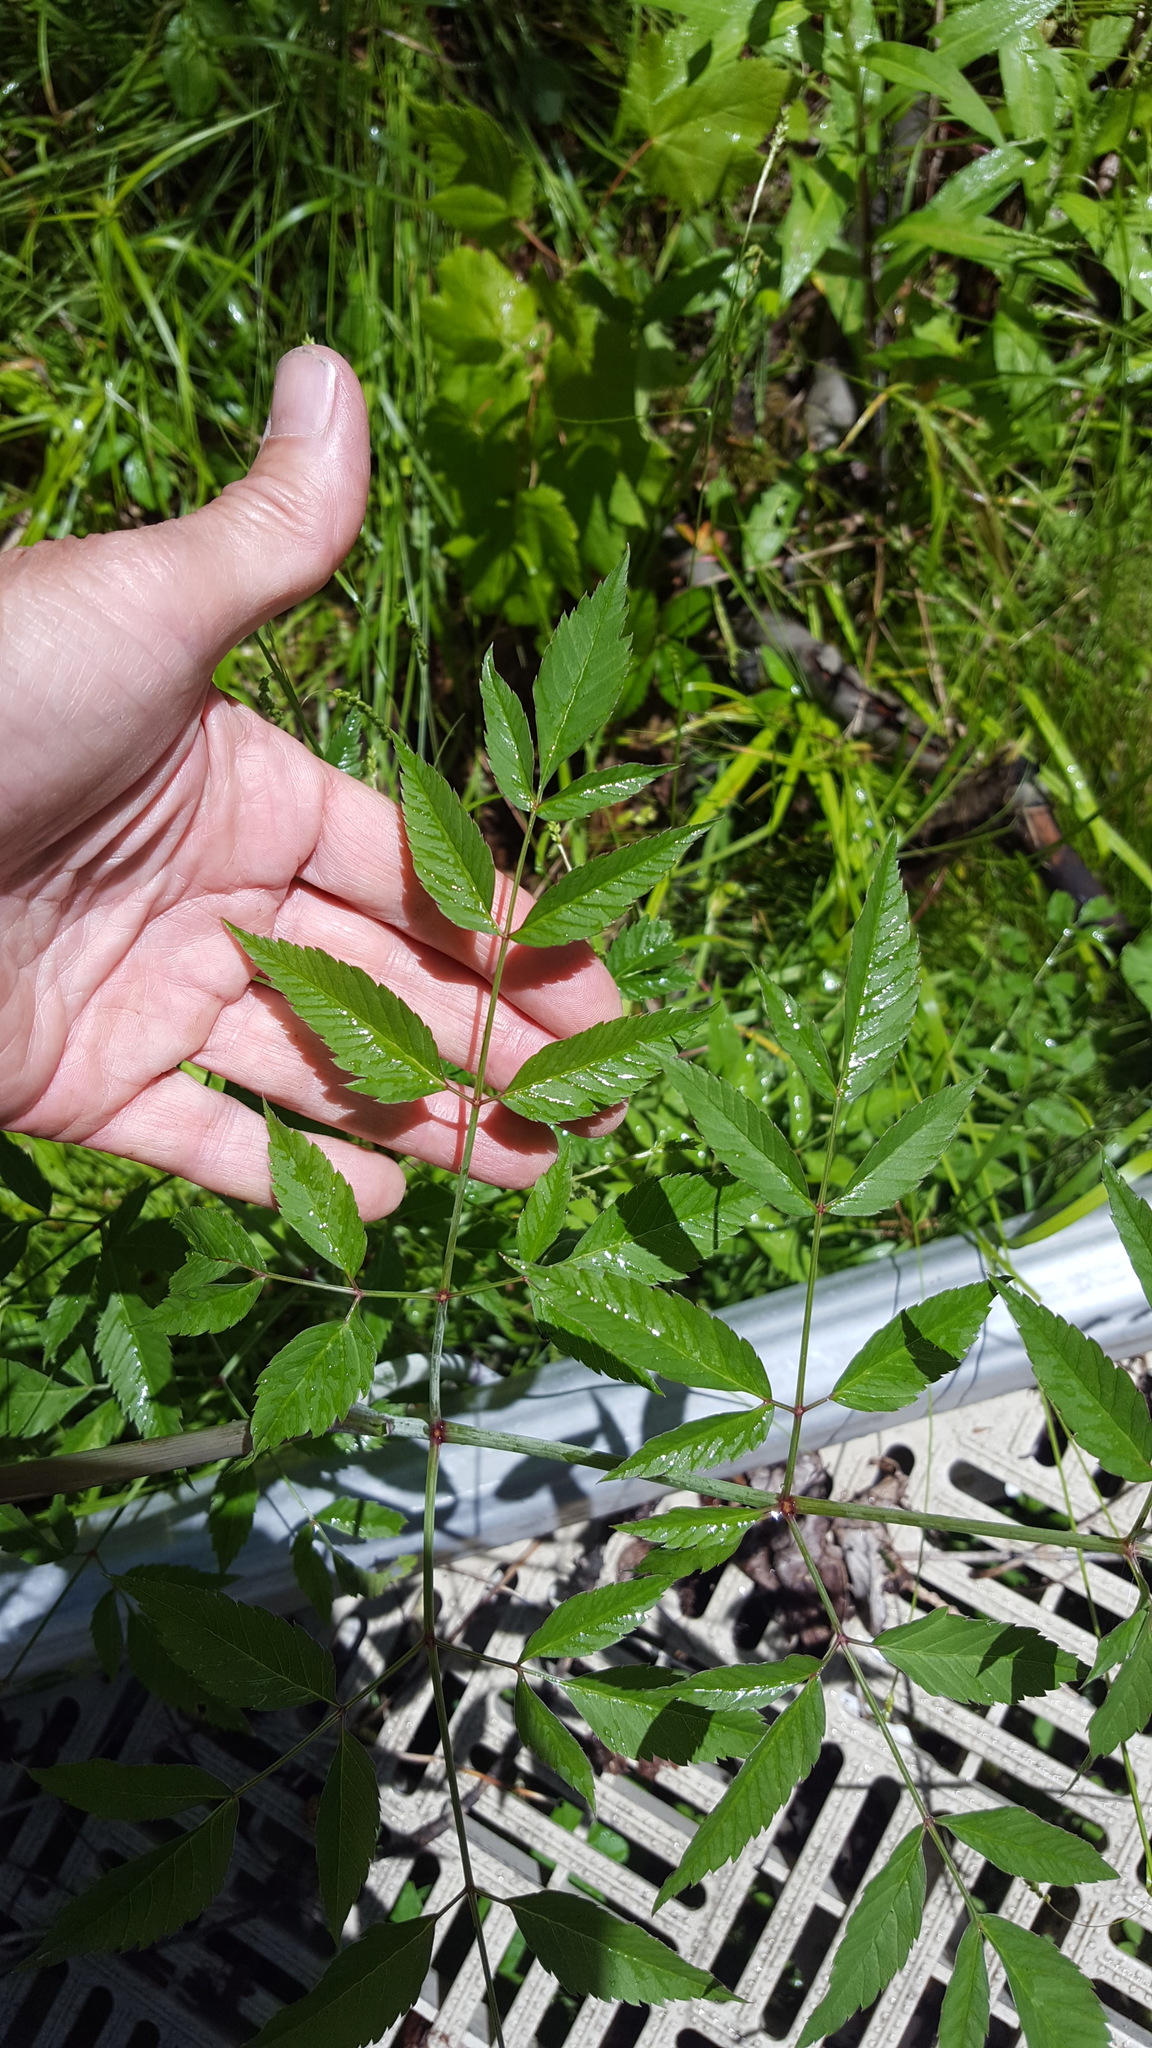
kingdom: Plantae
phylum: Tracheophyta
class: Magnoliopsida
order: Apiales
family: Apiaceae
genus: Cicuta
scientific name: Cicuta maculata
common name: Spotted cowbane
